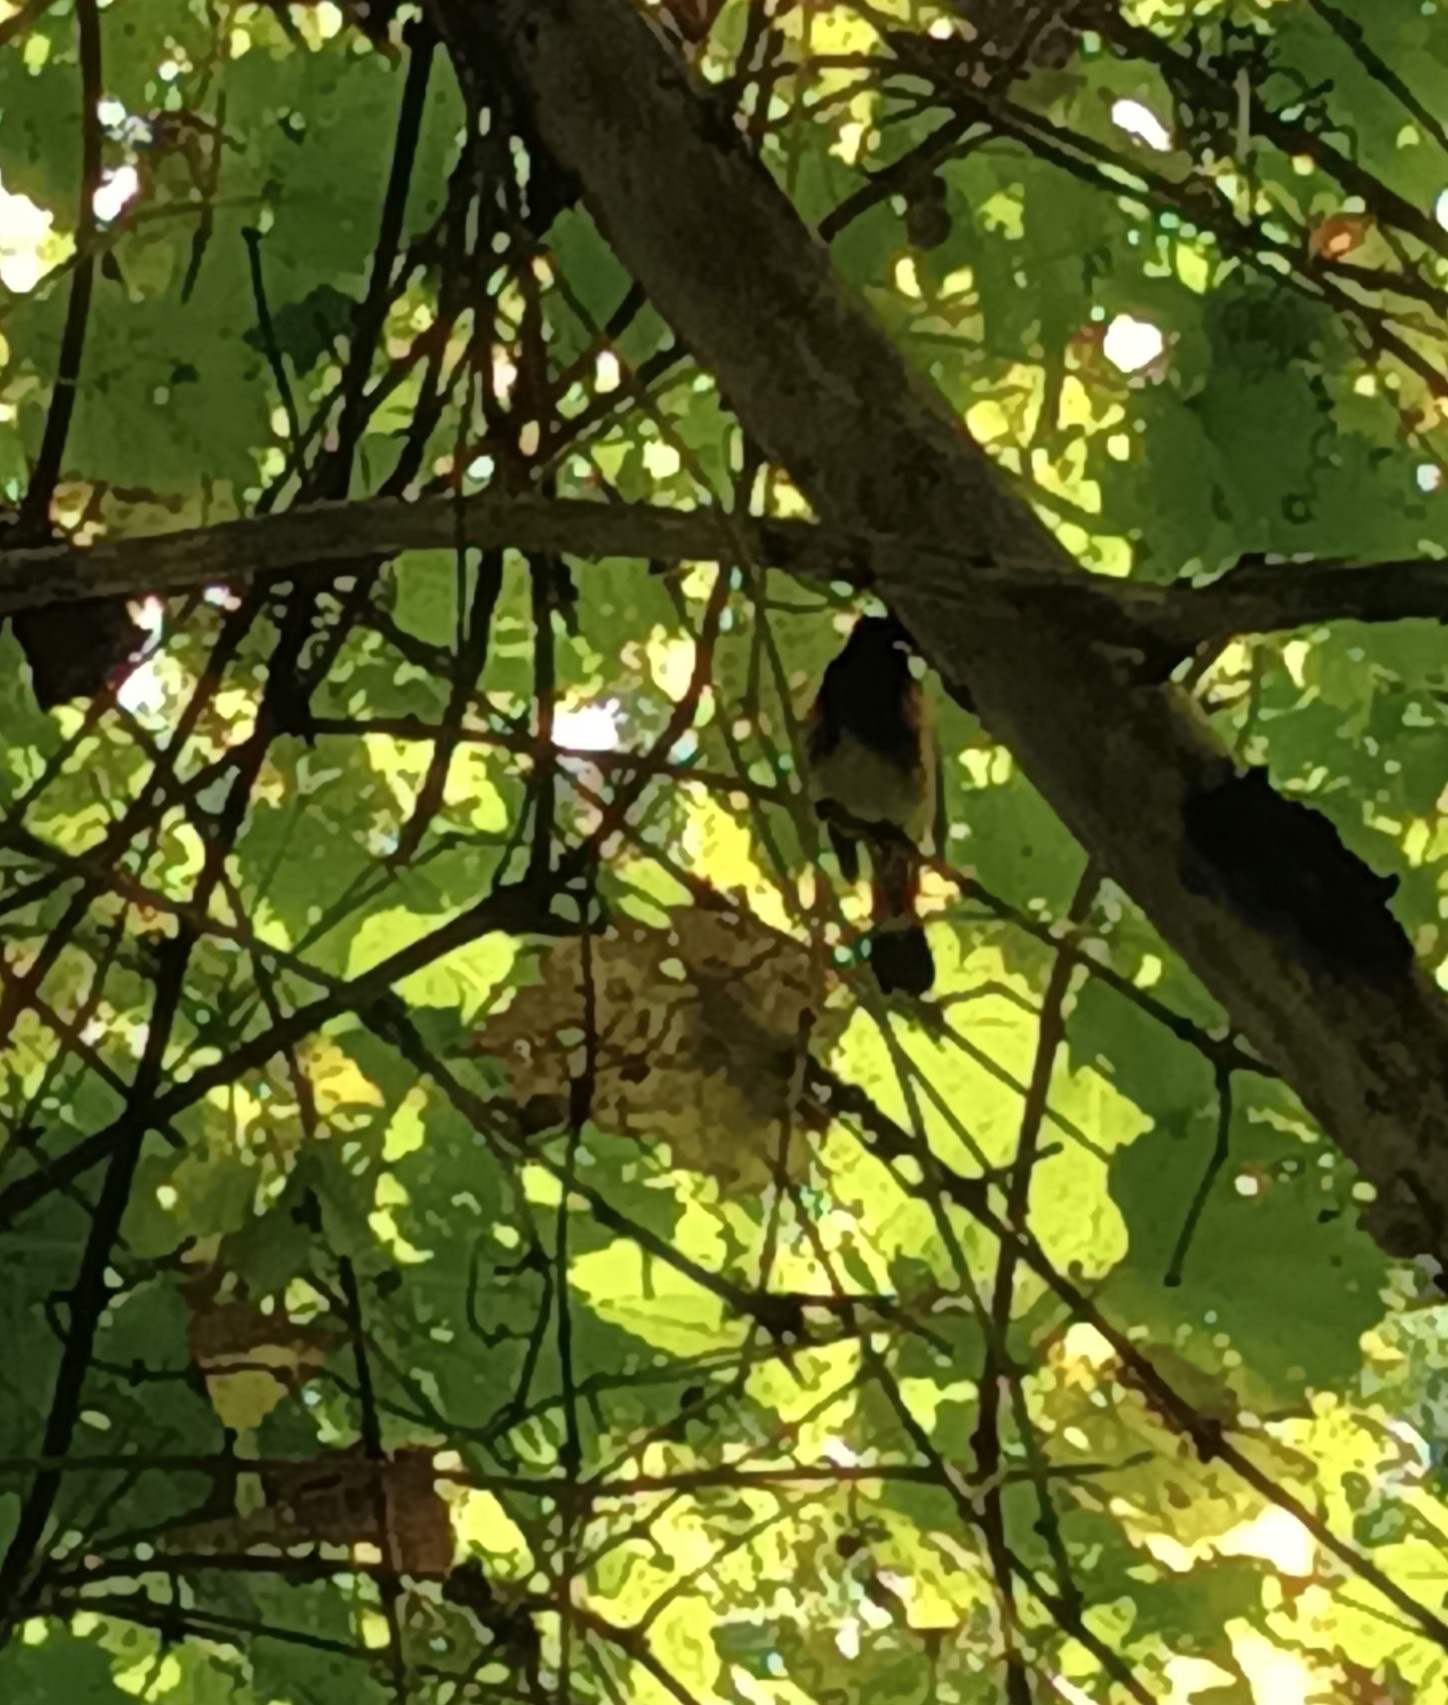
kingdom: Animalia
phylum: Chordata
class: Aves
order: Passeriformes
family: Parulidae
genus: Setophaga
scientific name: Setophaga ruticilla
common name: American redstart
